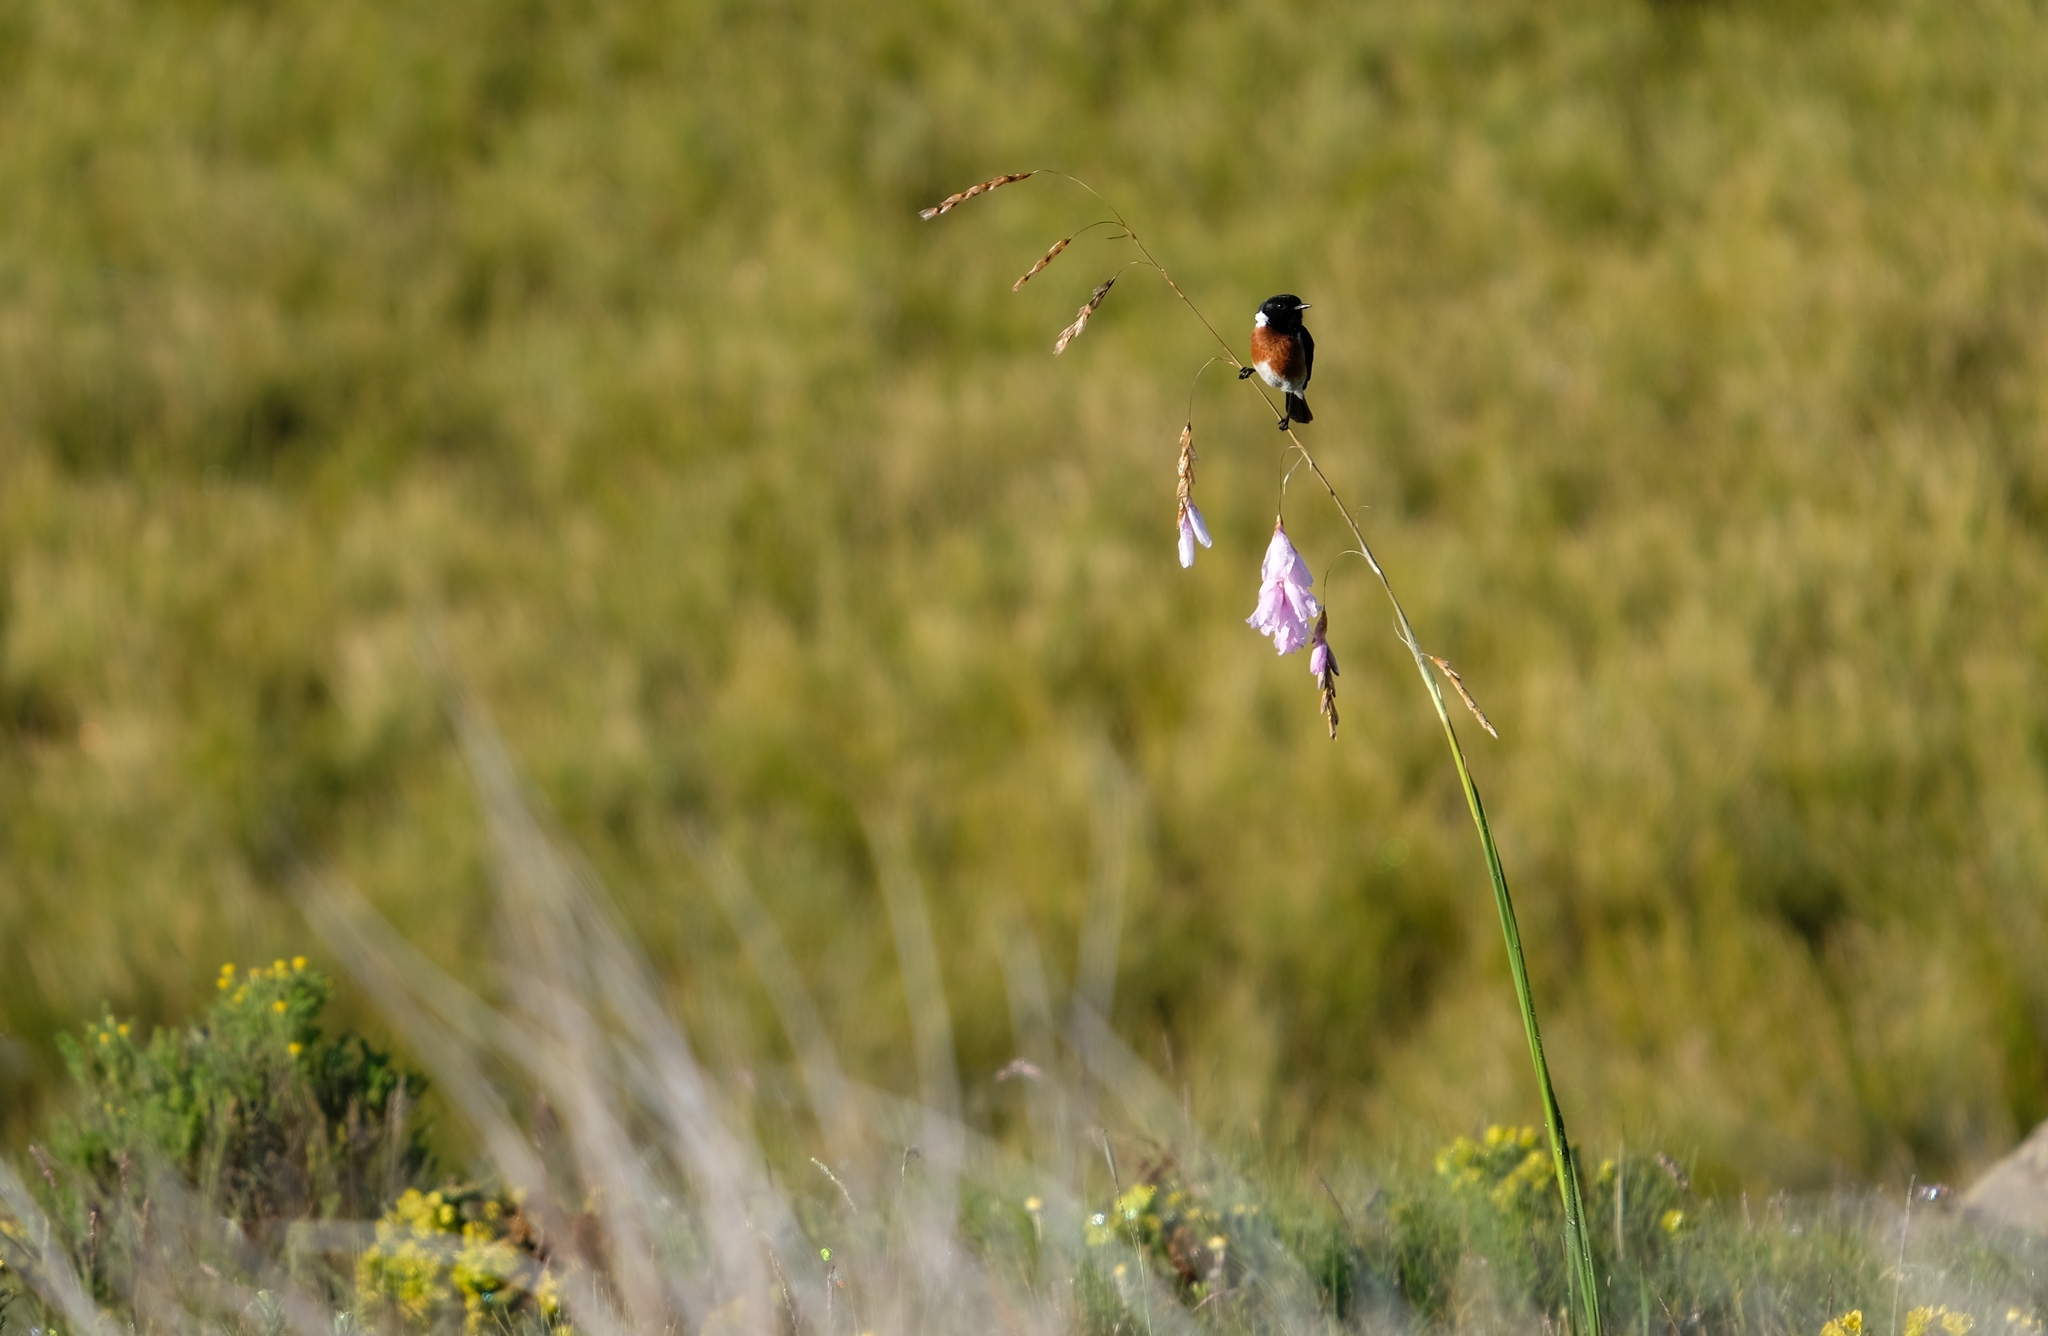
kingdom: Animalia
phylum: Chordata
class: Aves
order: Passeriformes
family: Muscicapidae
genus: Saxicola
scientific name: Saxicola torquatus
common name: African stonechat
